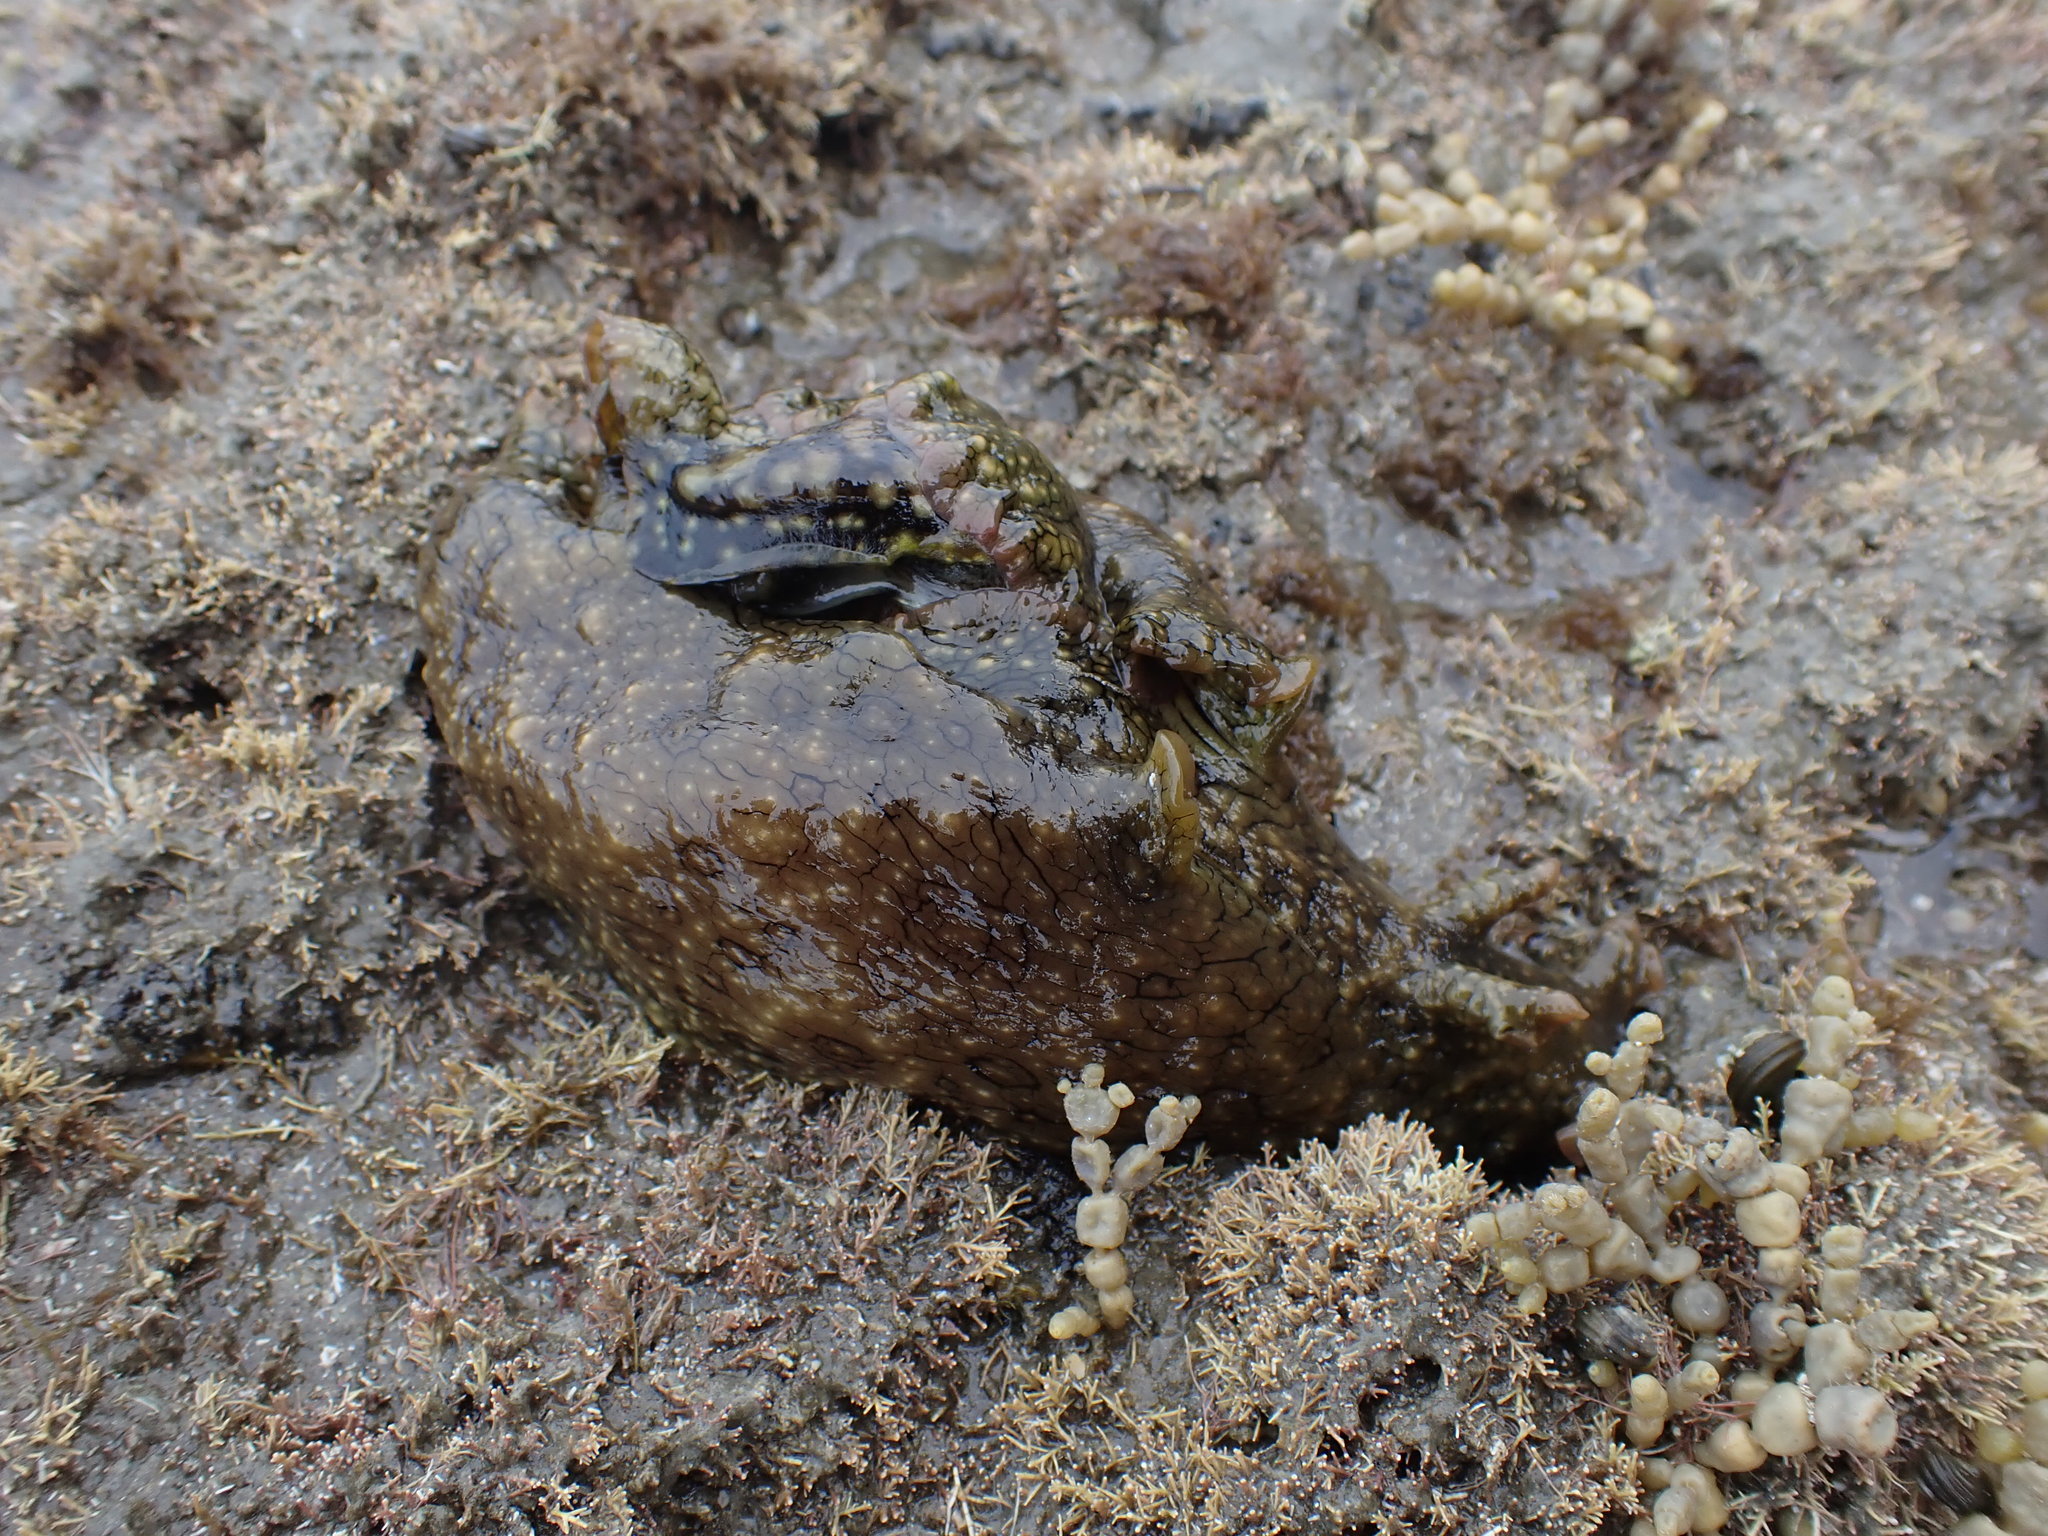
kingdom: Animalia
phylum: Mollusca
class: Gastropoda
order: Aplysiida
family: Aplysiidae
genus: Aplysia
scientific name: Aplysia argus
